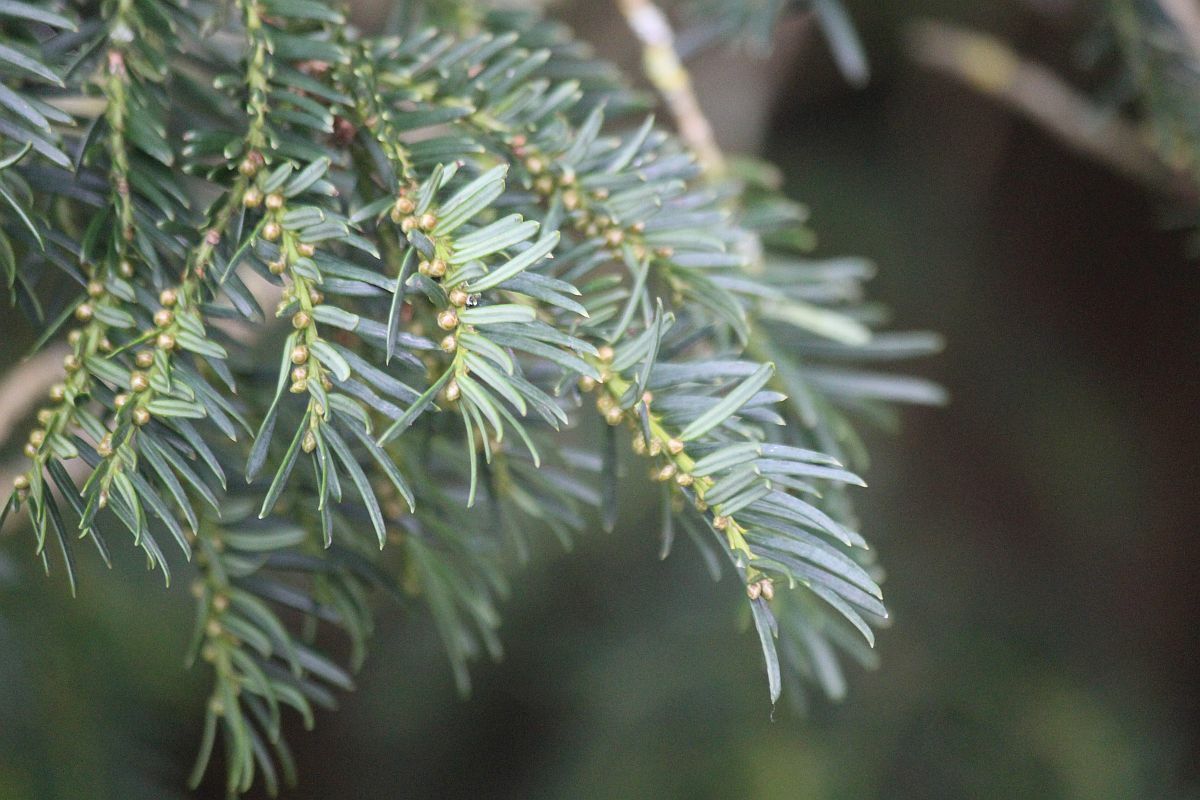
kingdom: Plantae
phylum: Tracheophyta
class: Pinopsida
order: Pinales
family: Taxaceae
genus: Taxus
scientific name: Taxus baccata
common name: Yew
